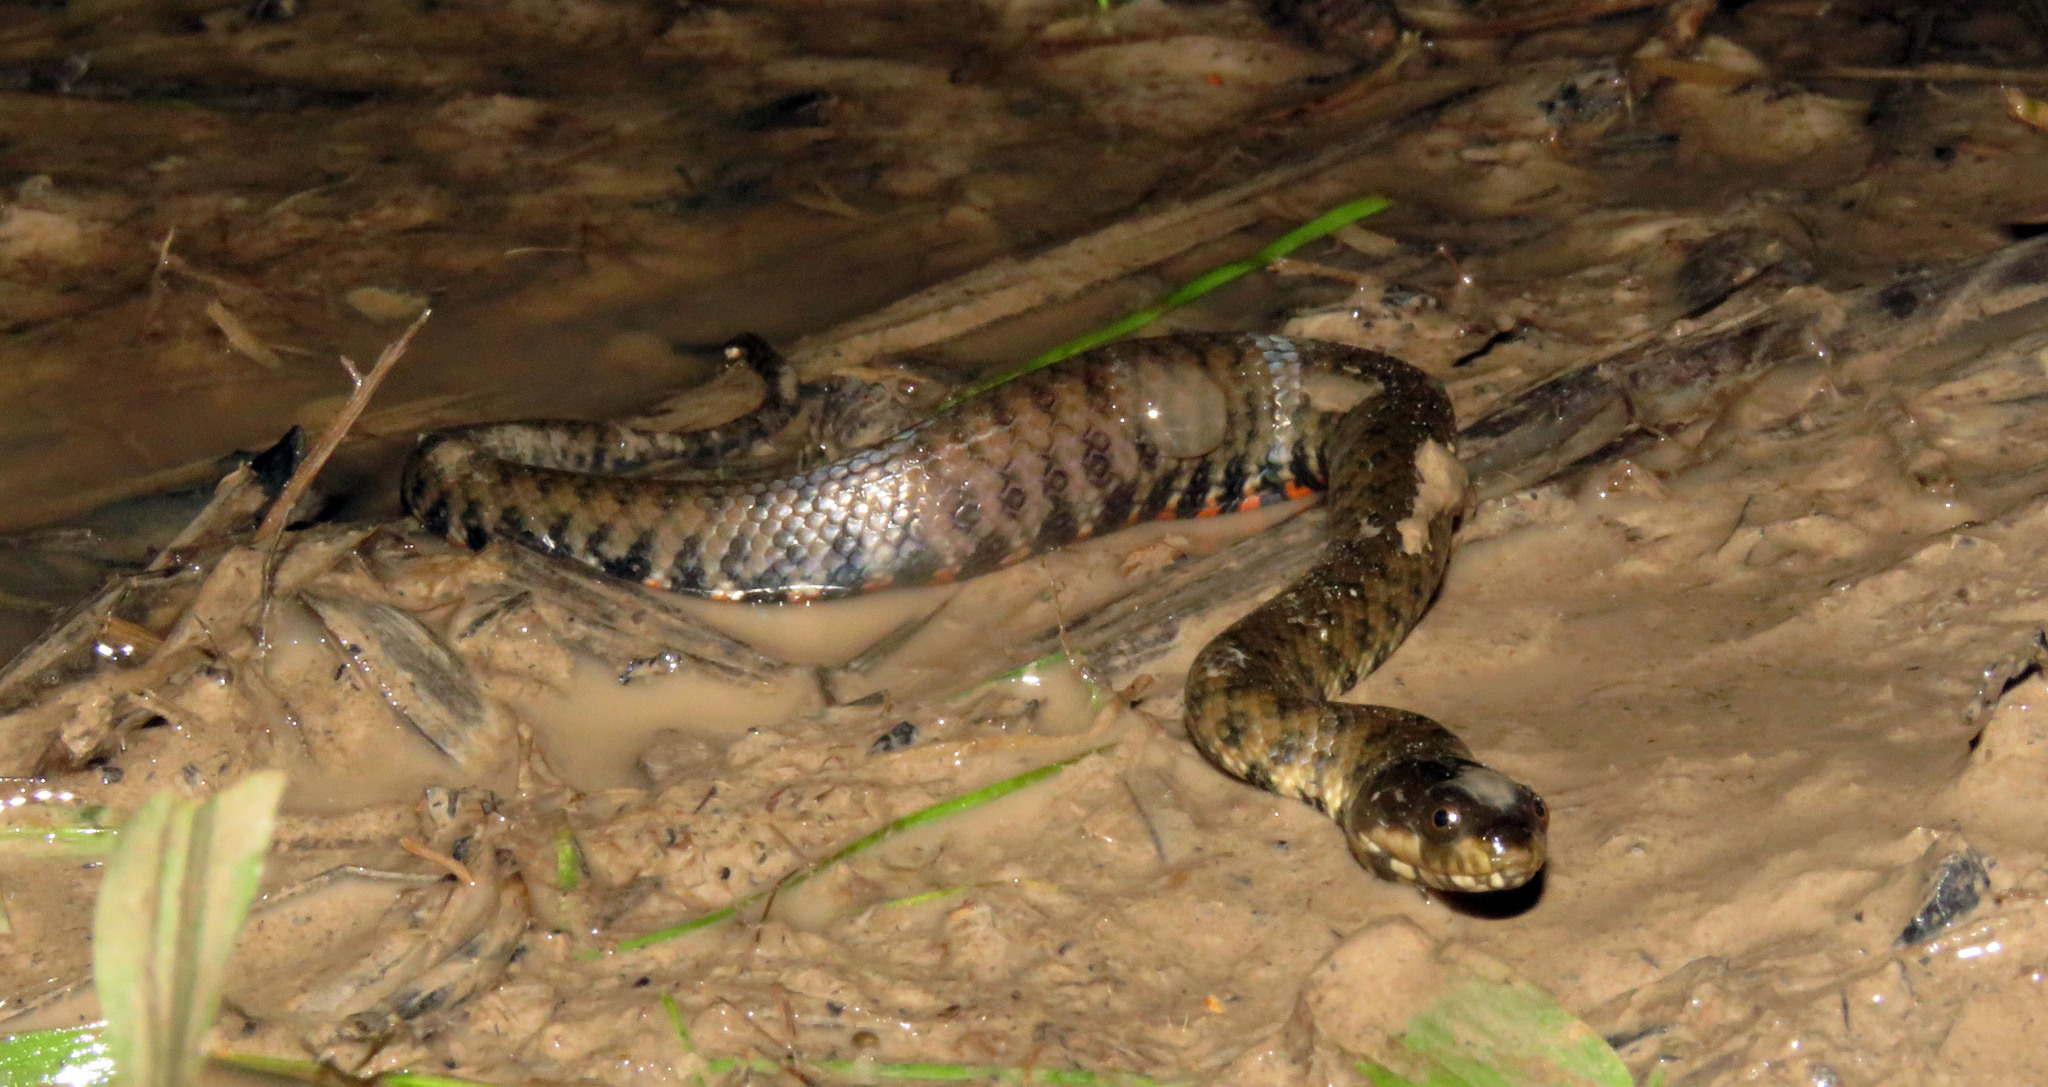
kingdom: Animalia
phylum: Chordata
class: Squamata
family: Colubridae
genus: Helicops
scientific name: Helicops leopardinus
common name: Leopard keelback
